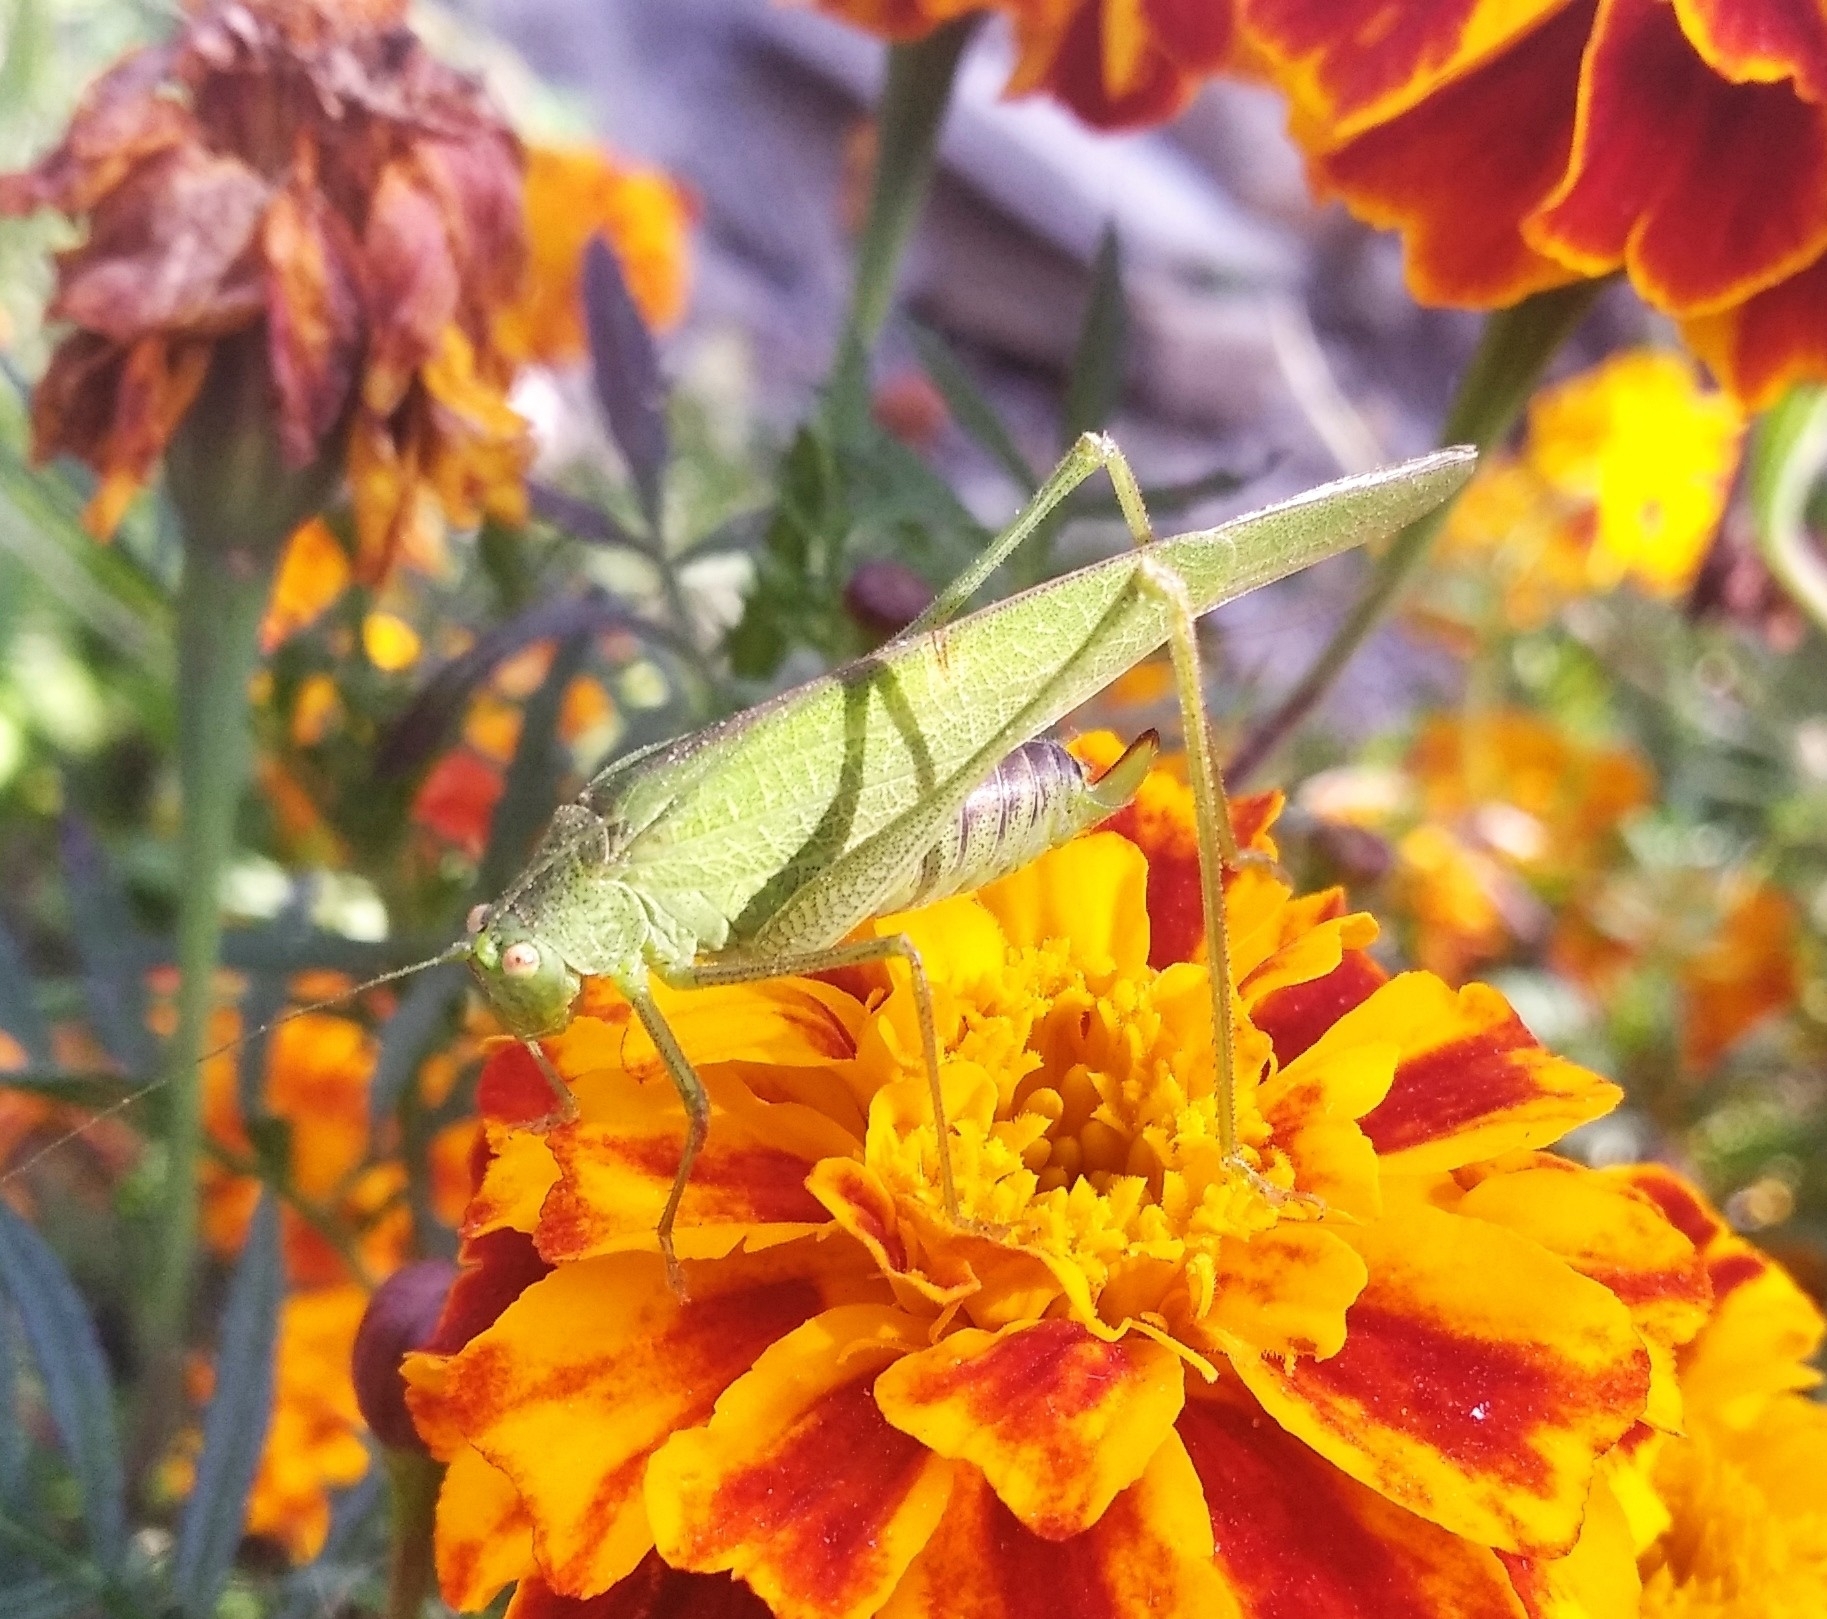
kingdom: Animalia
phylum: Arthropoda
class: Insecta
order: Orthoptera
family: Tettigoniidae
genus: Phaneroptera
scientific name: Phaneroptera nana
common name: Southern sickle bush-cricket
